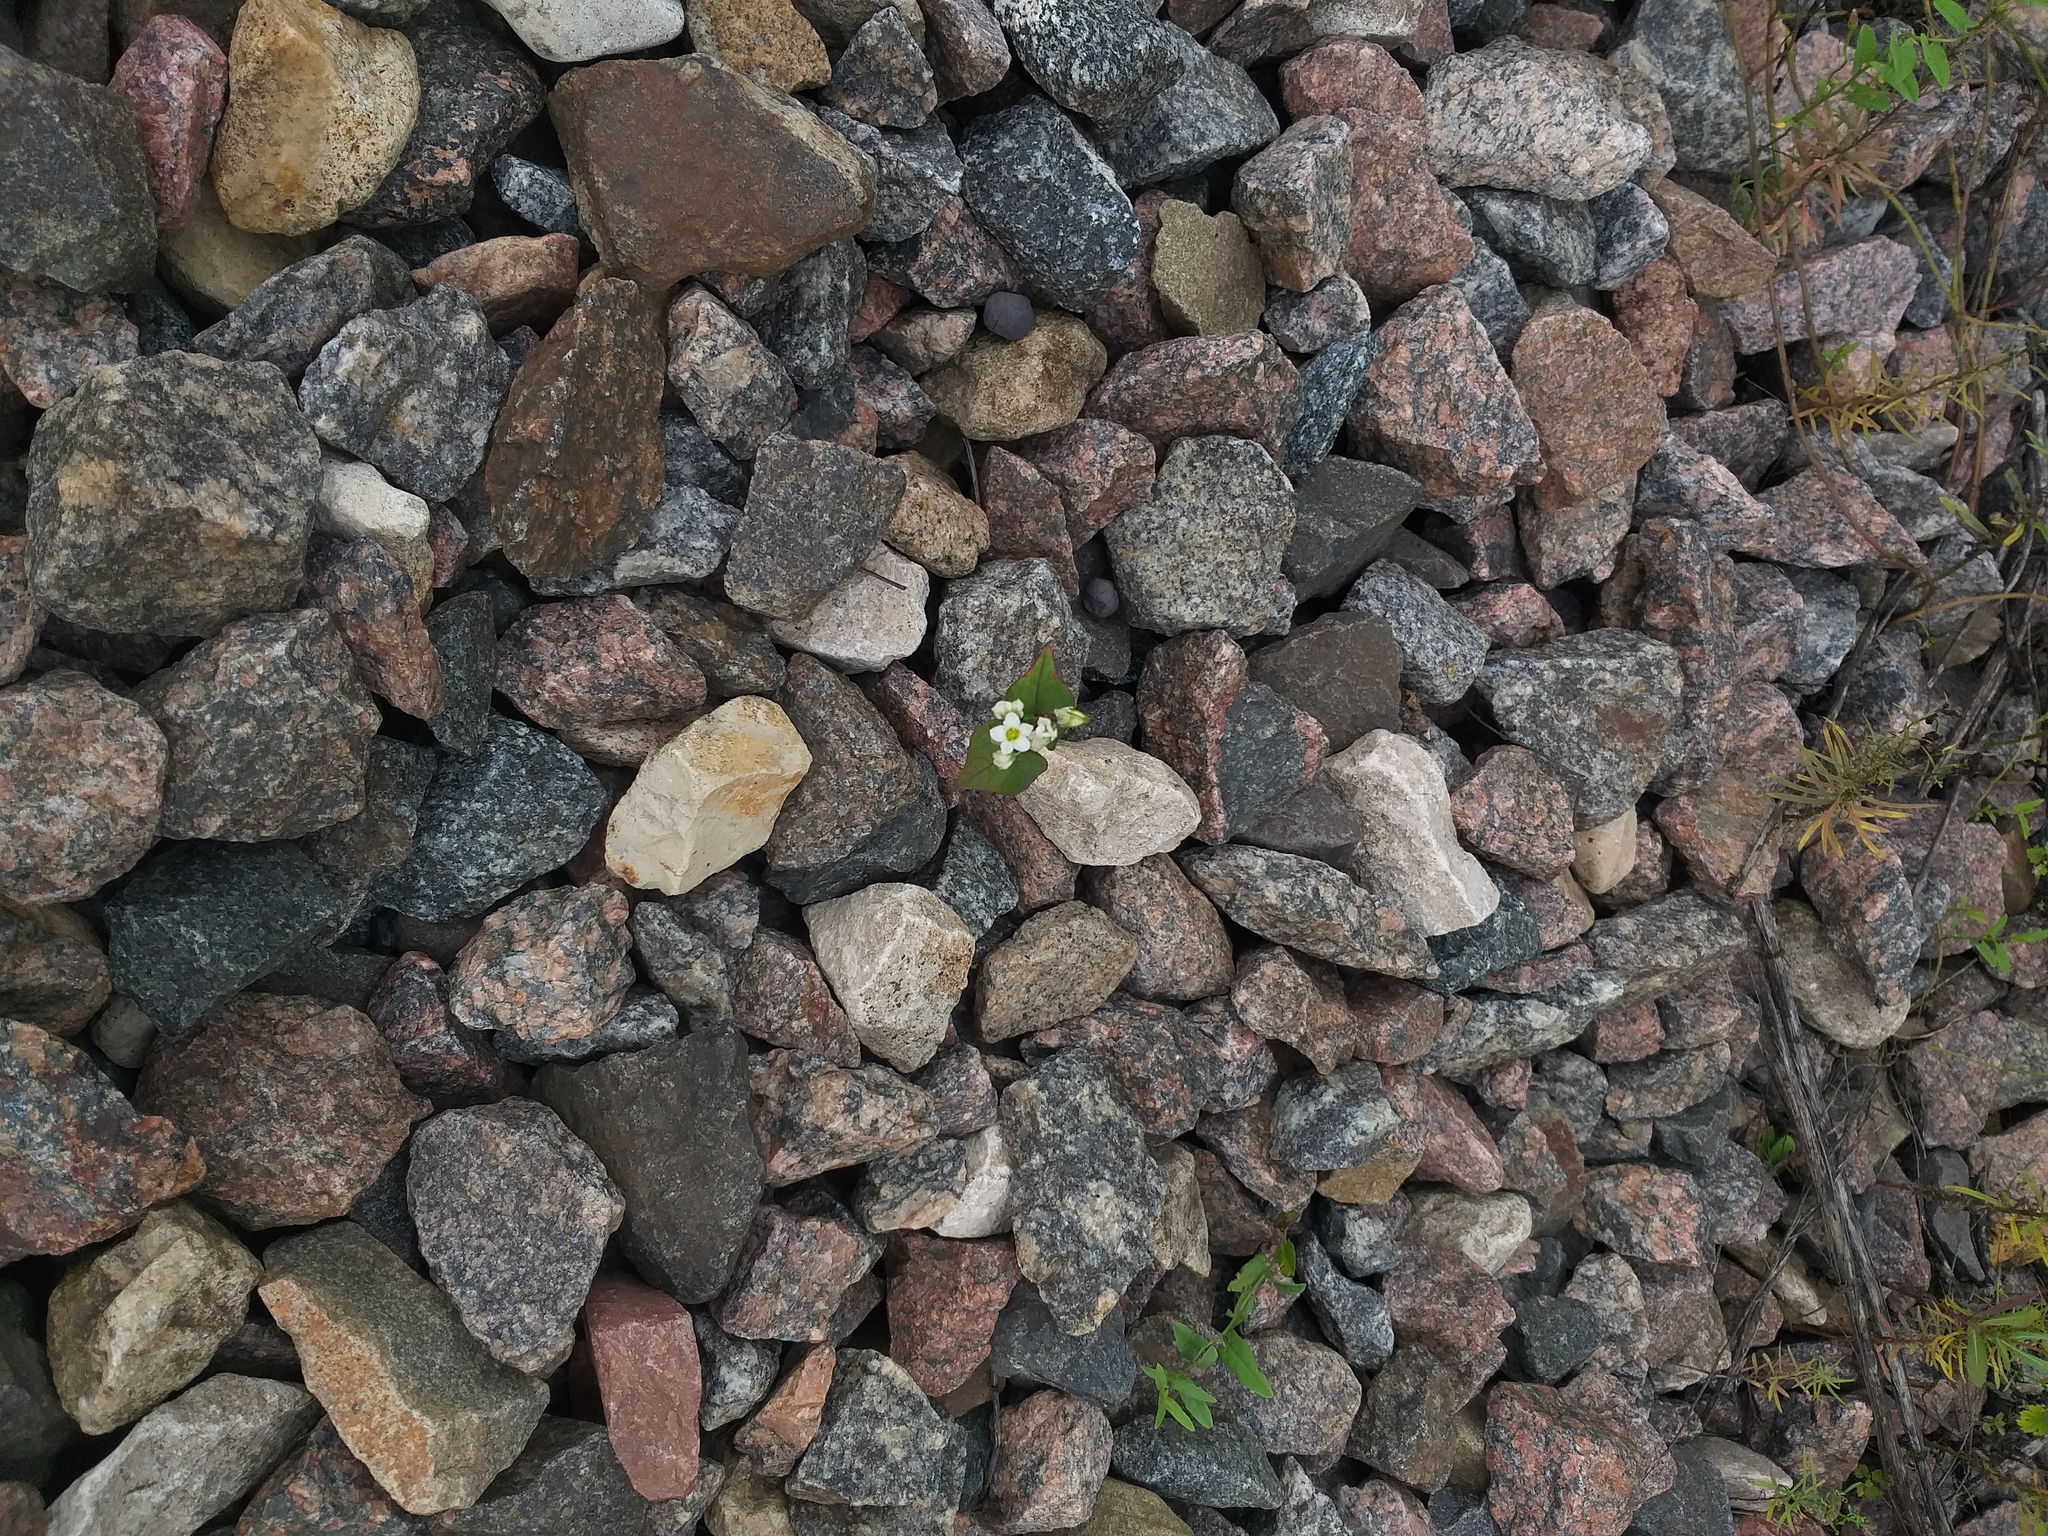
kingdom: Plantae
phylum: Tracheophyta
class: Magnoliopsida
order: Caryophyllales
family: Polygonaceae
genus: Fagopyrum
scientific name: Fagopyrum esculentum
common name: Buckwheat
